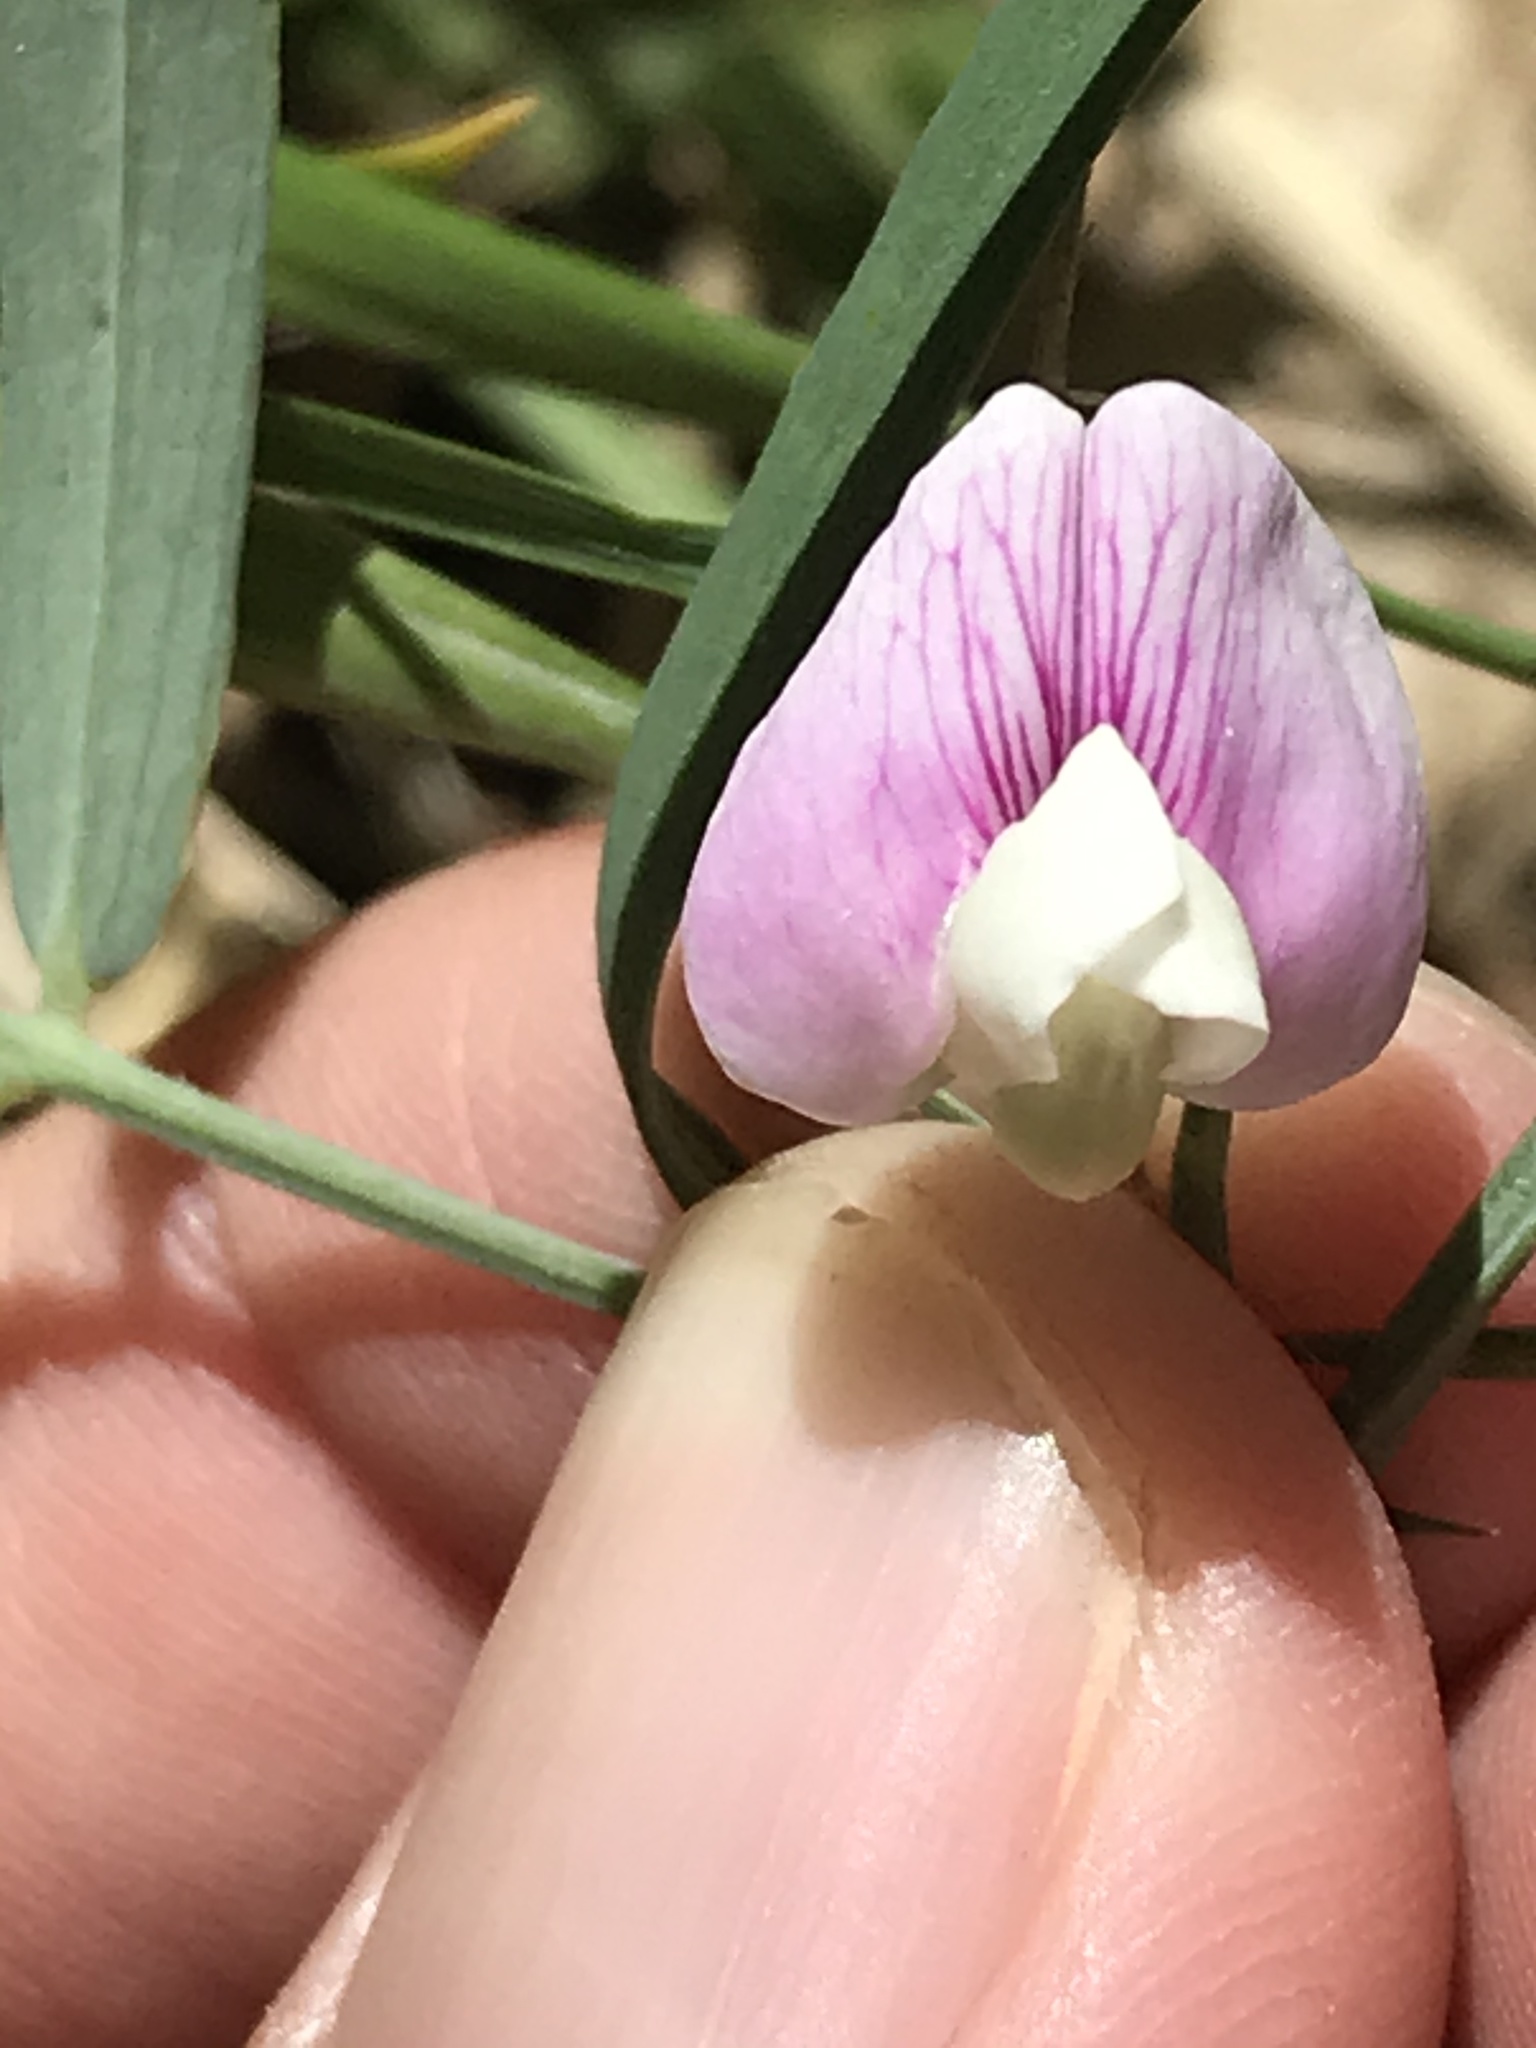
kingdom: Plantae
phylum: Tracheophyta
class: Magnoliopsida
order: Fabales
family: Fabaceae
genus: Lathyrus
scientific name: Lathyrus lanszwertii
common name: Lanszwert's vetchling
